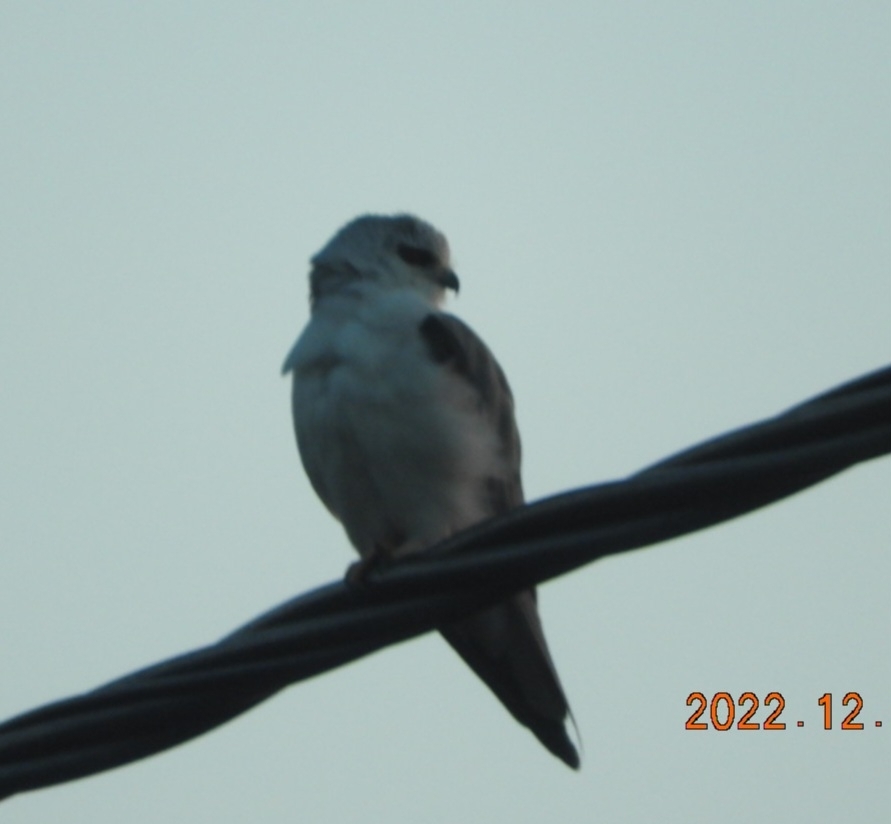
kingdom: Animalia
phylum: Chordata
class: Aves
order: Accipitriformes
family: Accipitridae
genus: Elanus
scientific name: Elanus caeruleus
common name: Black-winged kite
